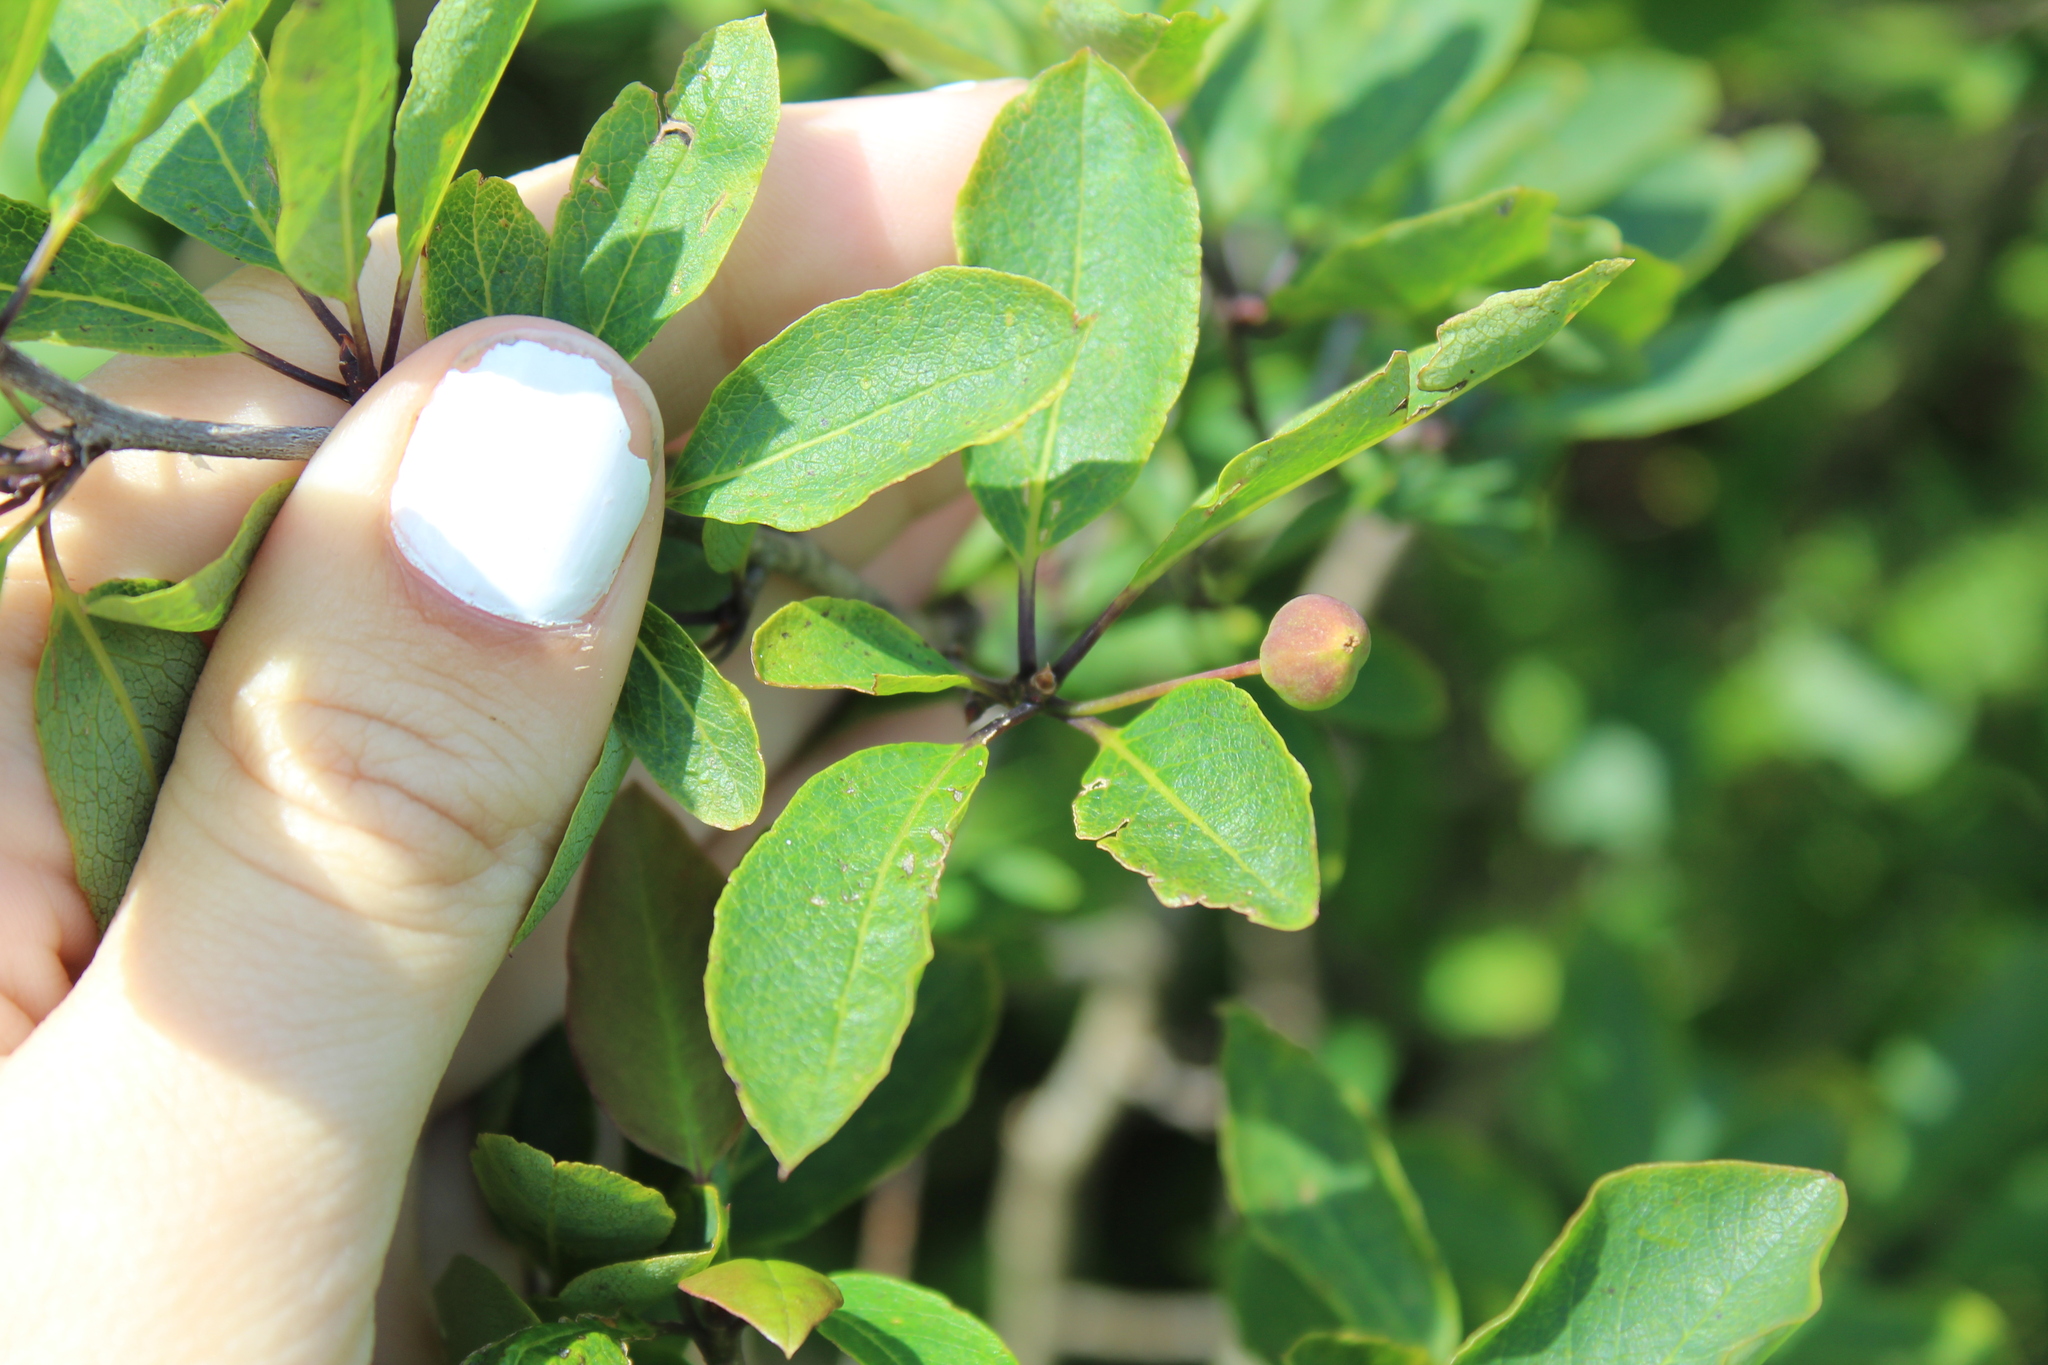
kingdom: Plantae
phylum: Tracheophyta
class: Magnoliopsida
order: Aquifoliales
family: Aquifoliaceae
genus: Ilex
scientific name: Ilex mucronata
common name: Catberry
